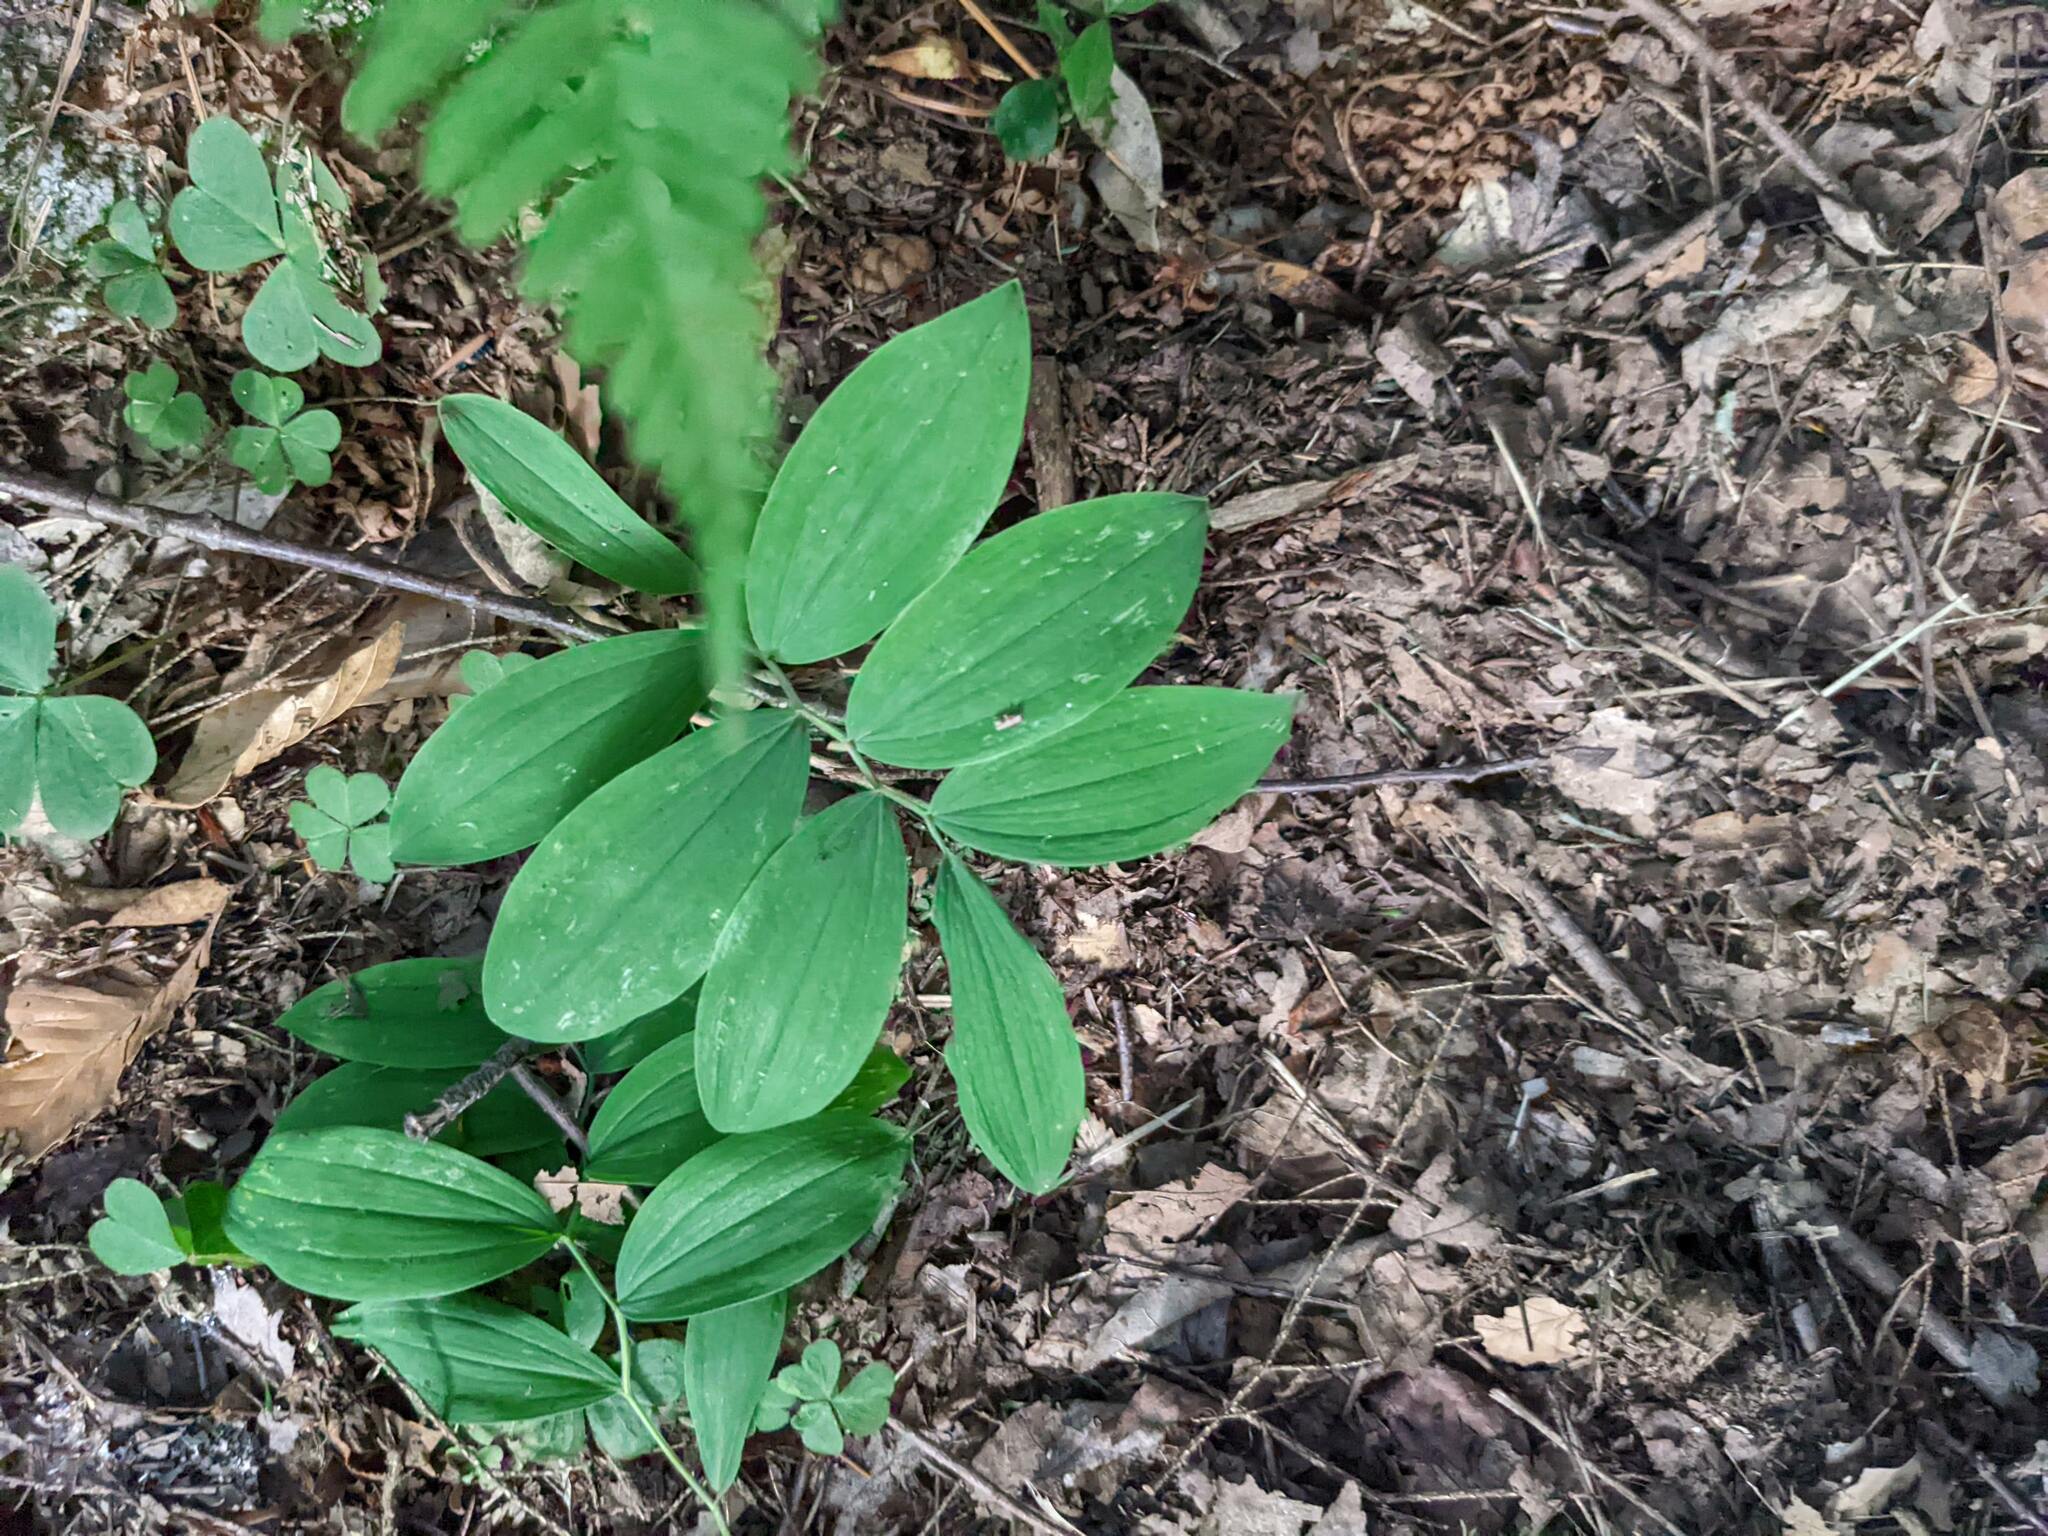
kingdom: Plantae
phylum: Tracheophyta
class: Liliopsida
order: Liliales
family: Colchicaceae
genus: Uvularia
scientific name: Uvularia sessilifolia
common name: Straw-lily
